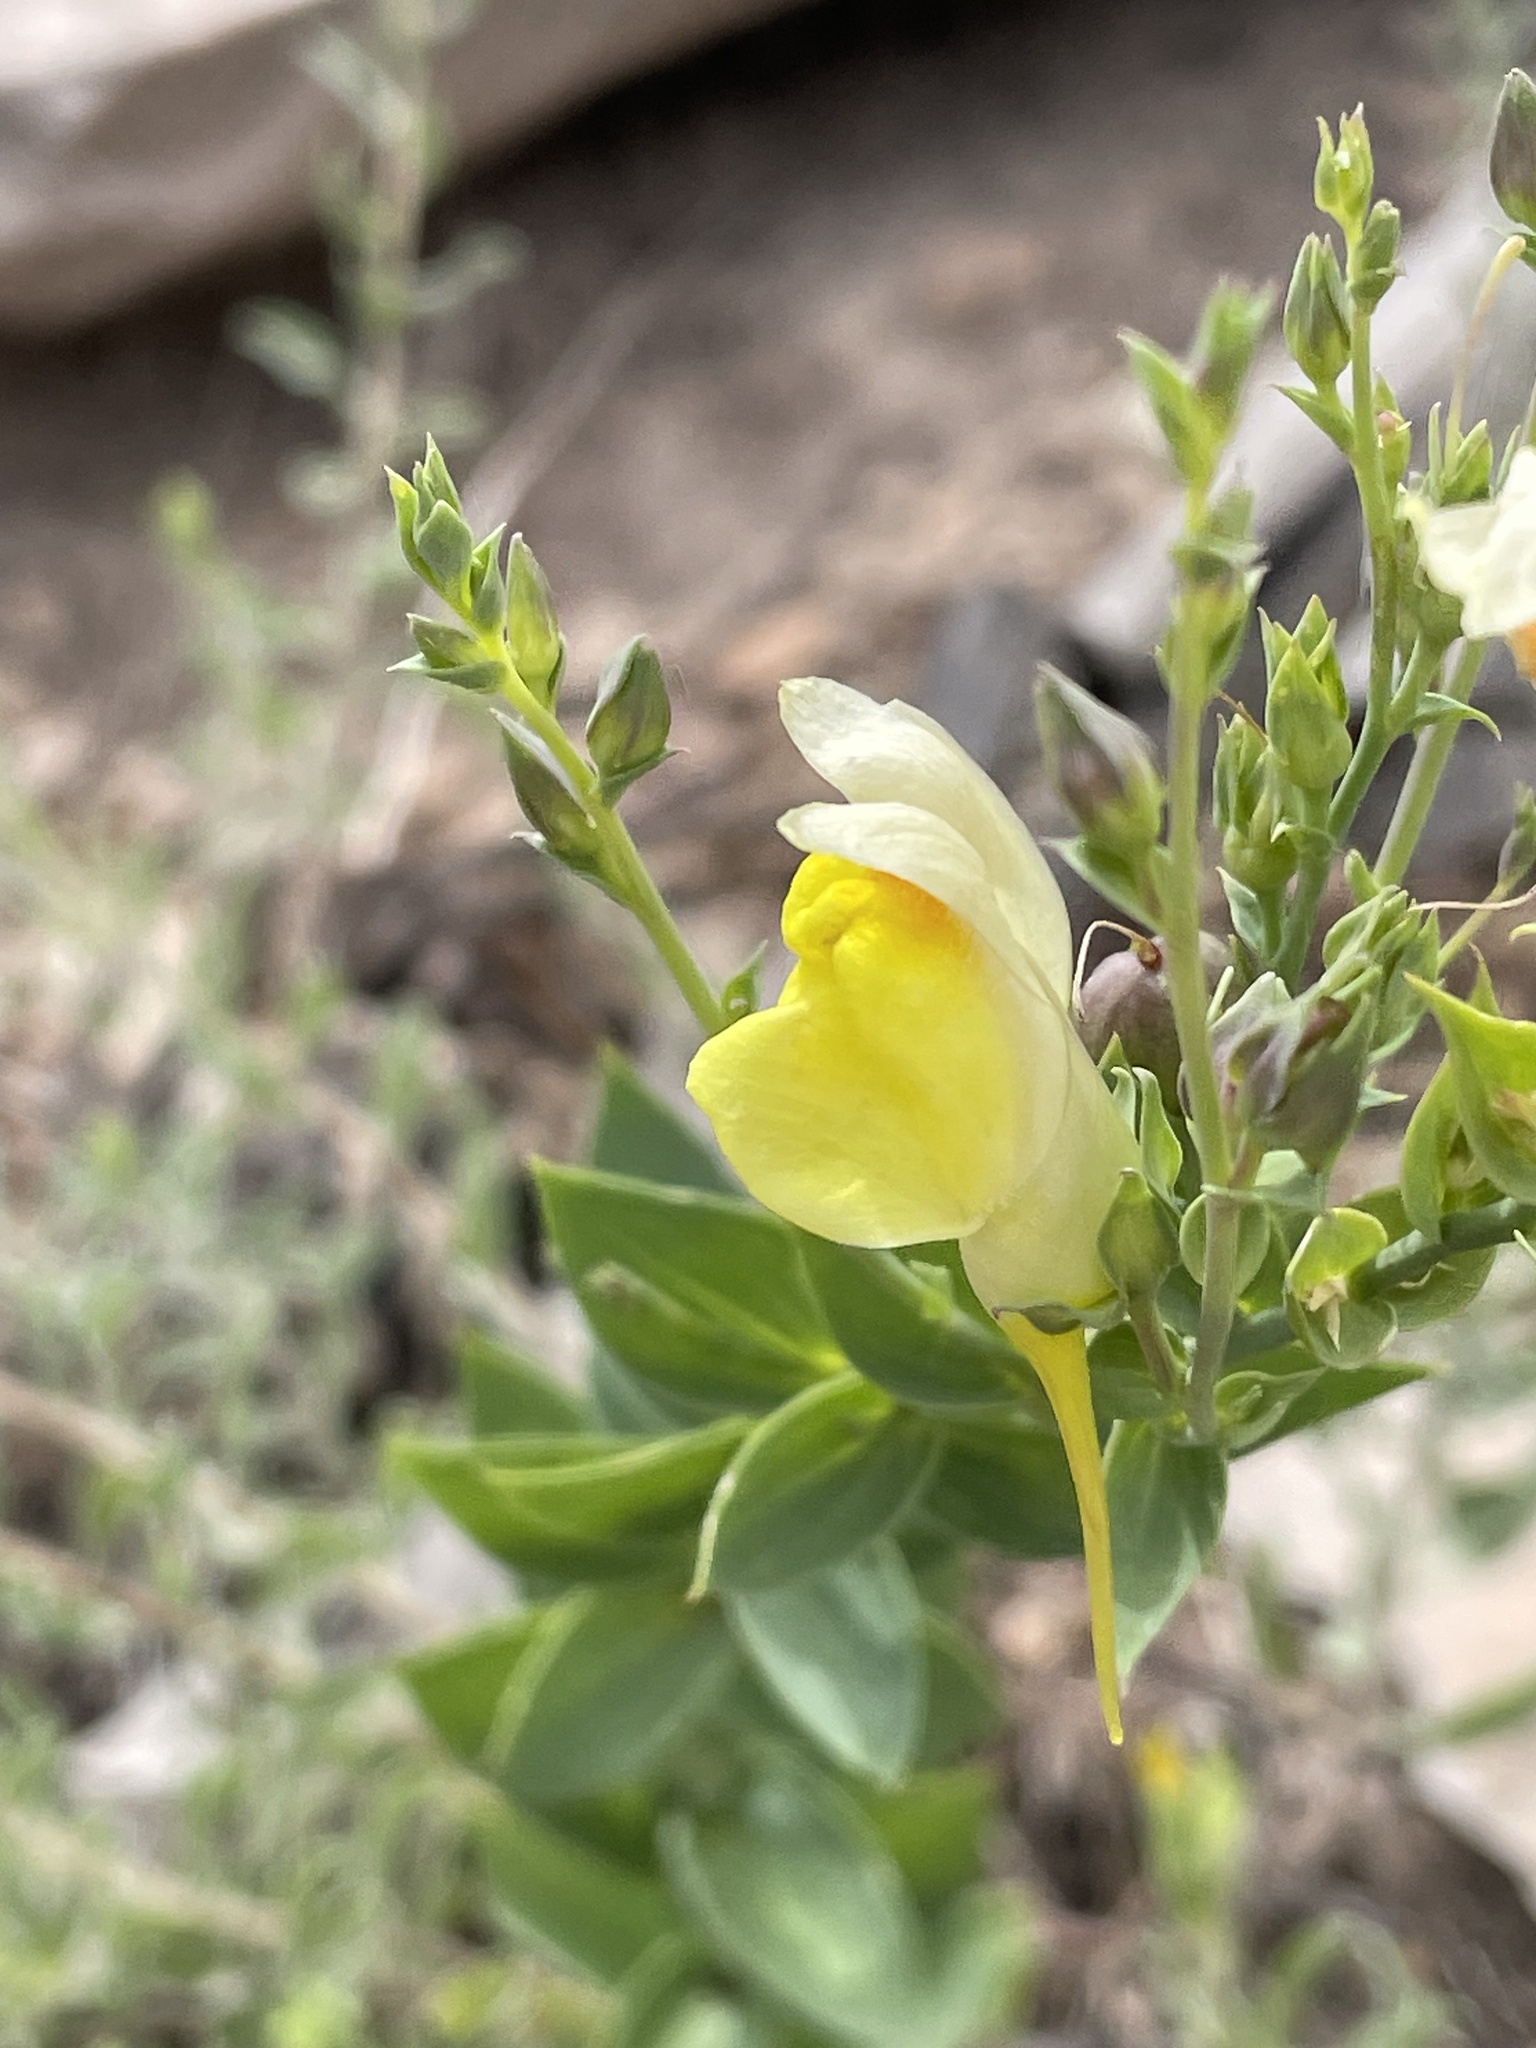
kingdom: Plantae
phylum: Tracheophyta
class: Magnoliopsida
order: Lamiales
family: Plantaginaceae
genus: Linaria
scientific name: Linaria dalmatica
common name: Dalmatian toadflax
